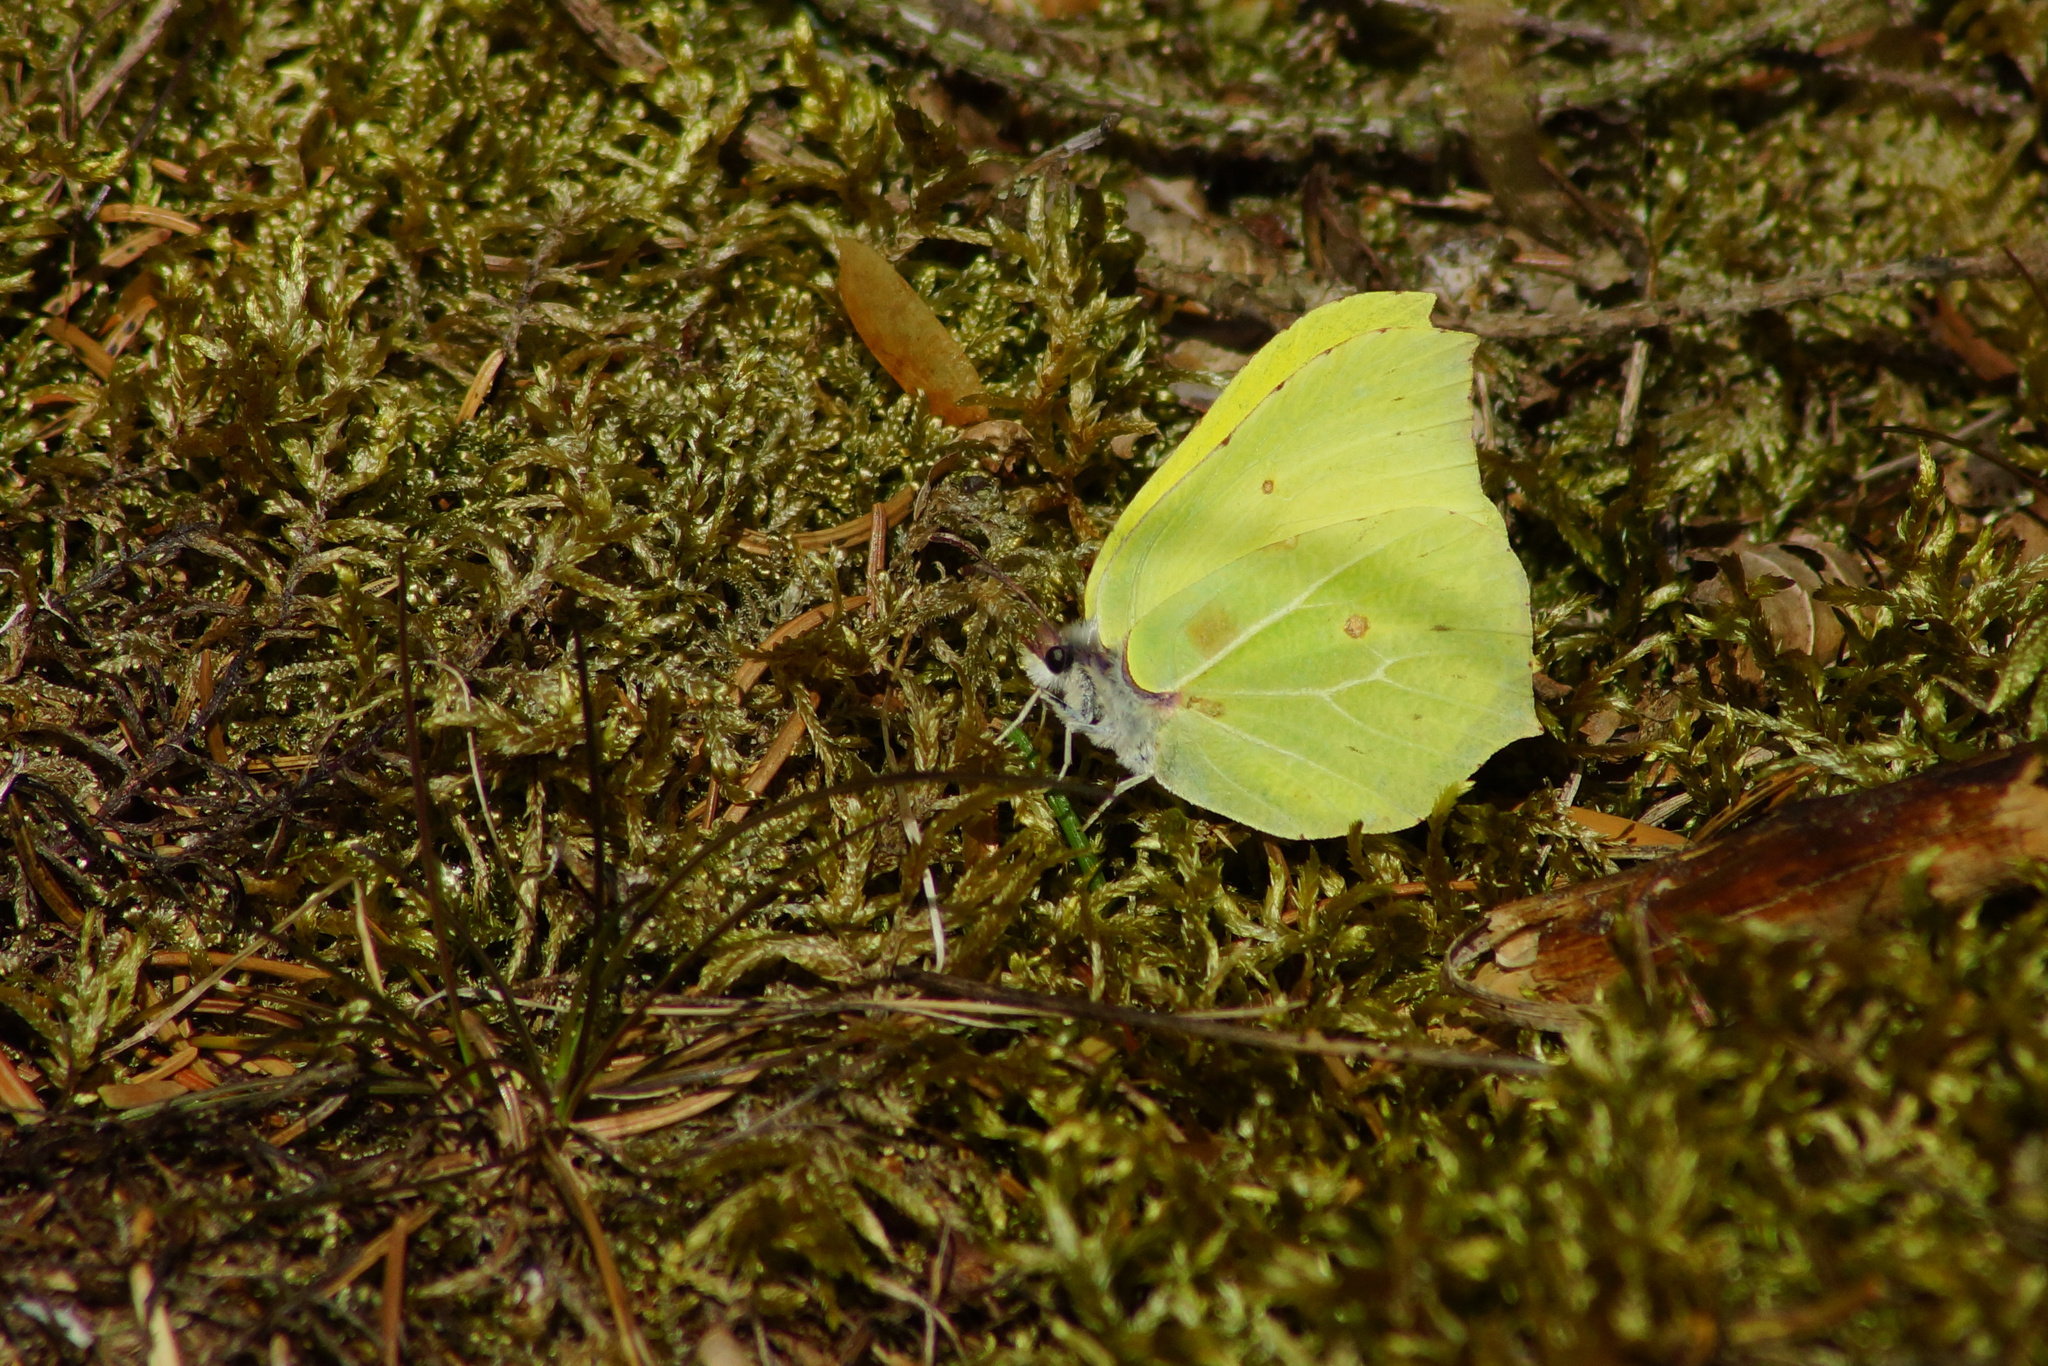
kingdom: Animalia
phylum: Arthropoda
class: Insecta
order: Lepidoptera
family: Pieridae
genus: Gonepteryx
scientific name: Gonepteryx rhamni
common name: Brimstone
